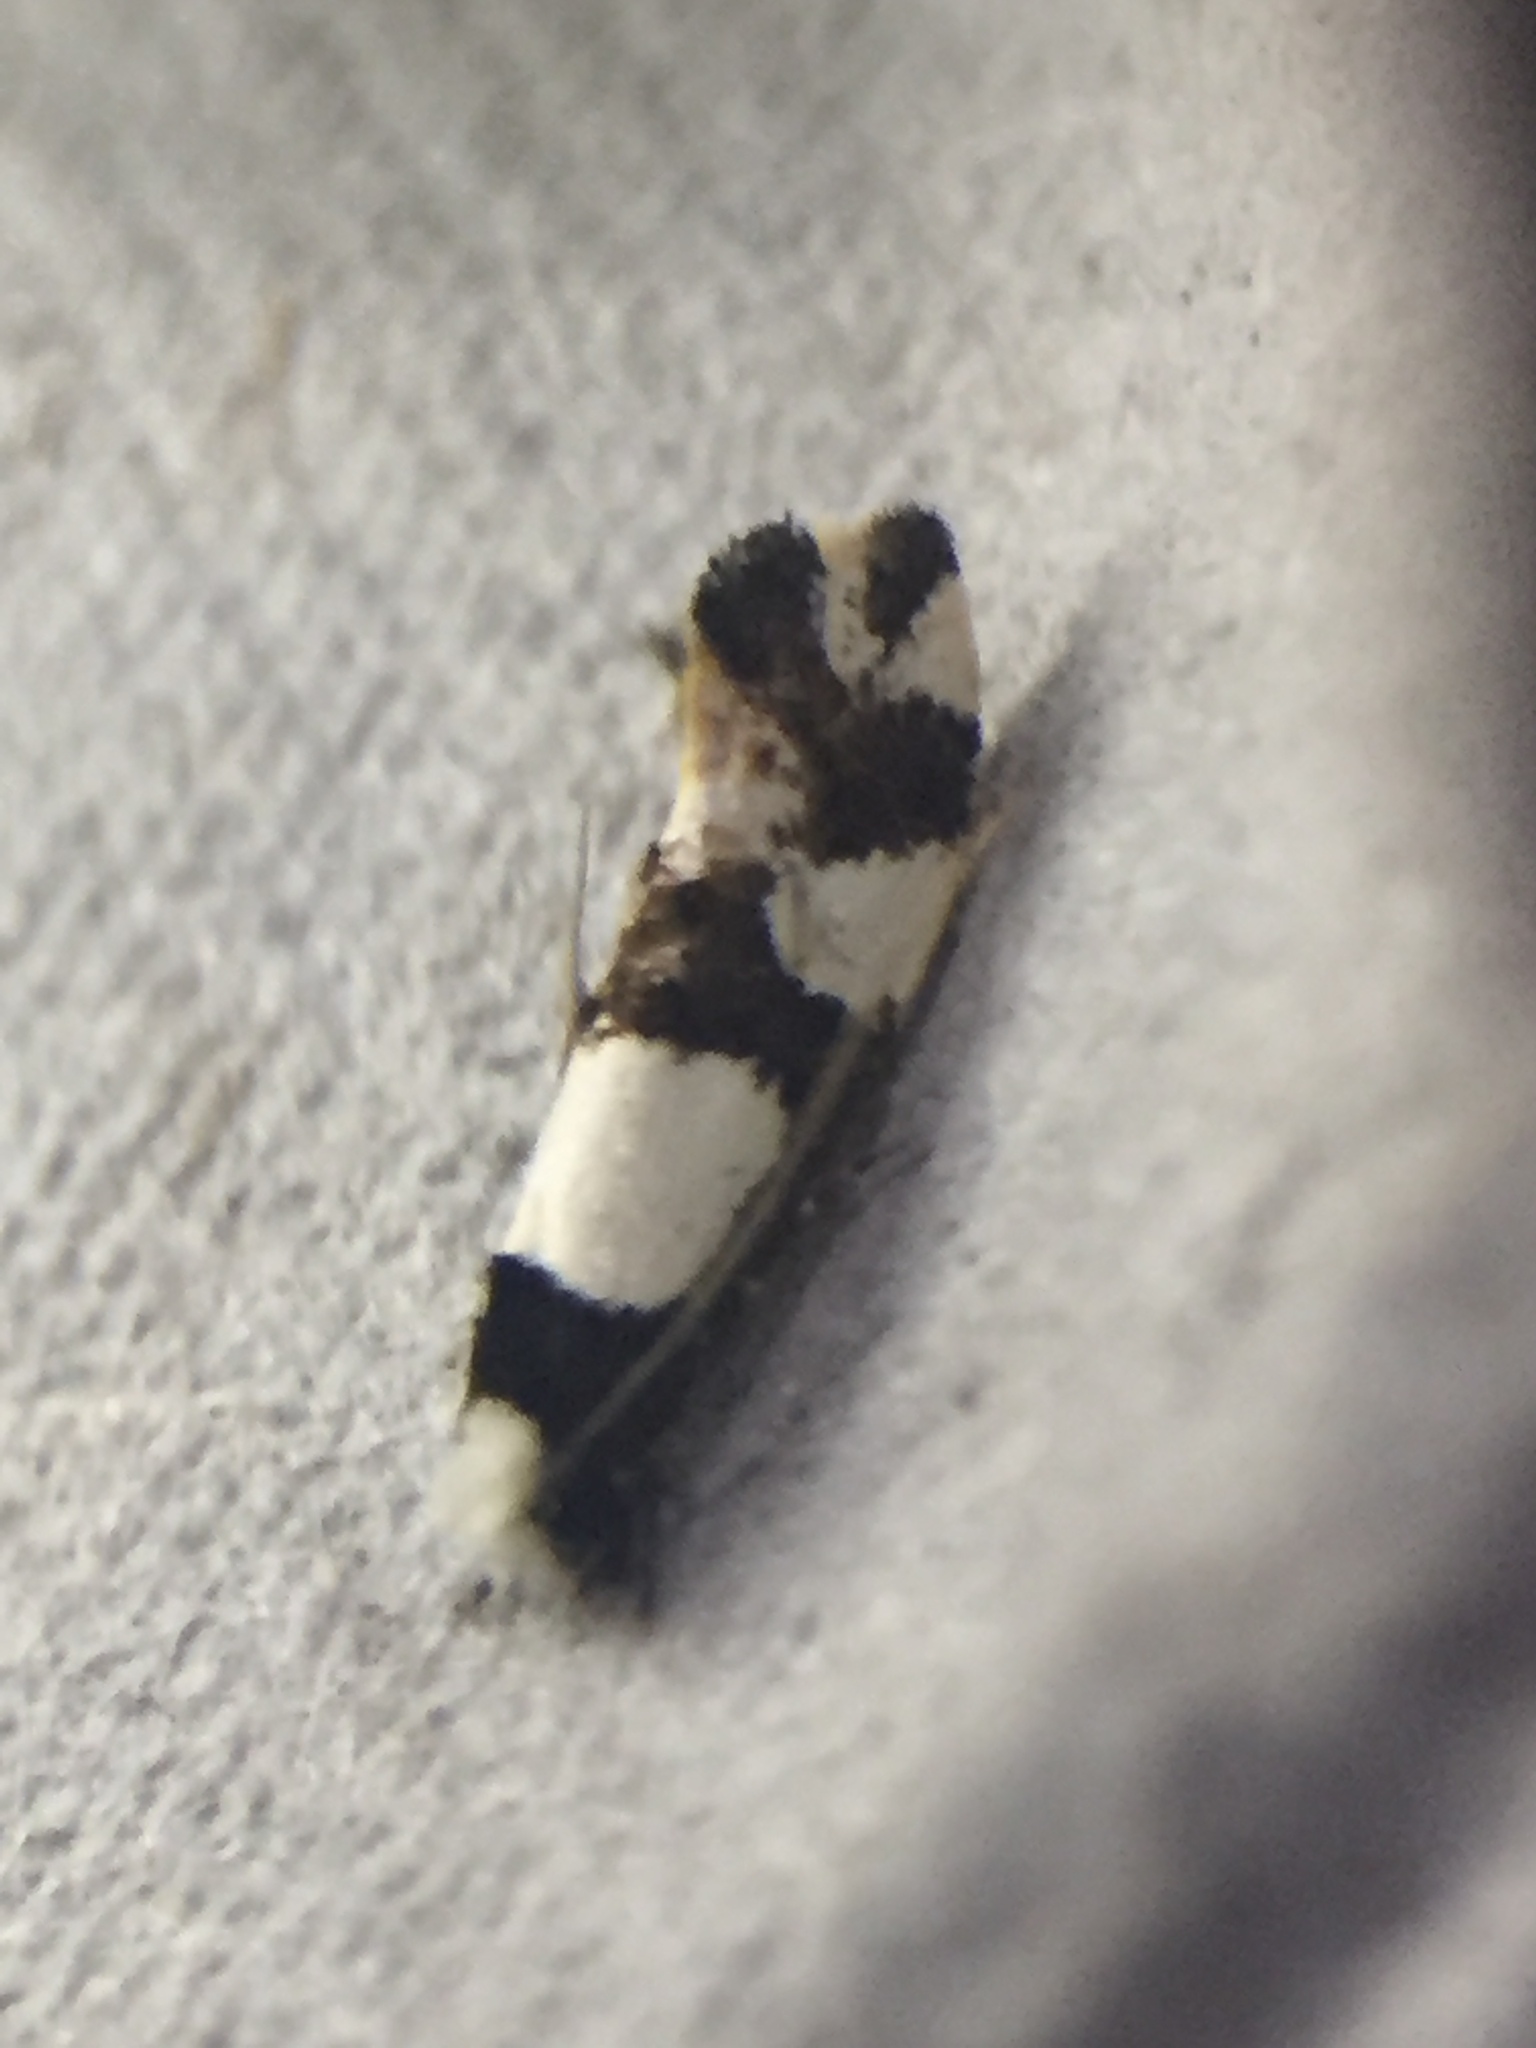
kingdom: Animalia
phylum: Arthropoda
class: Insecta
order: Lepidoptera
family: Tineidae
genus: Monopis
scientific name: Monopis icterogastra
